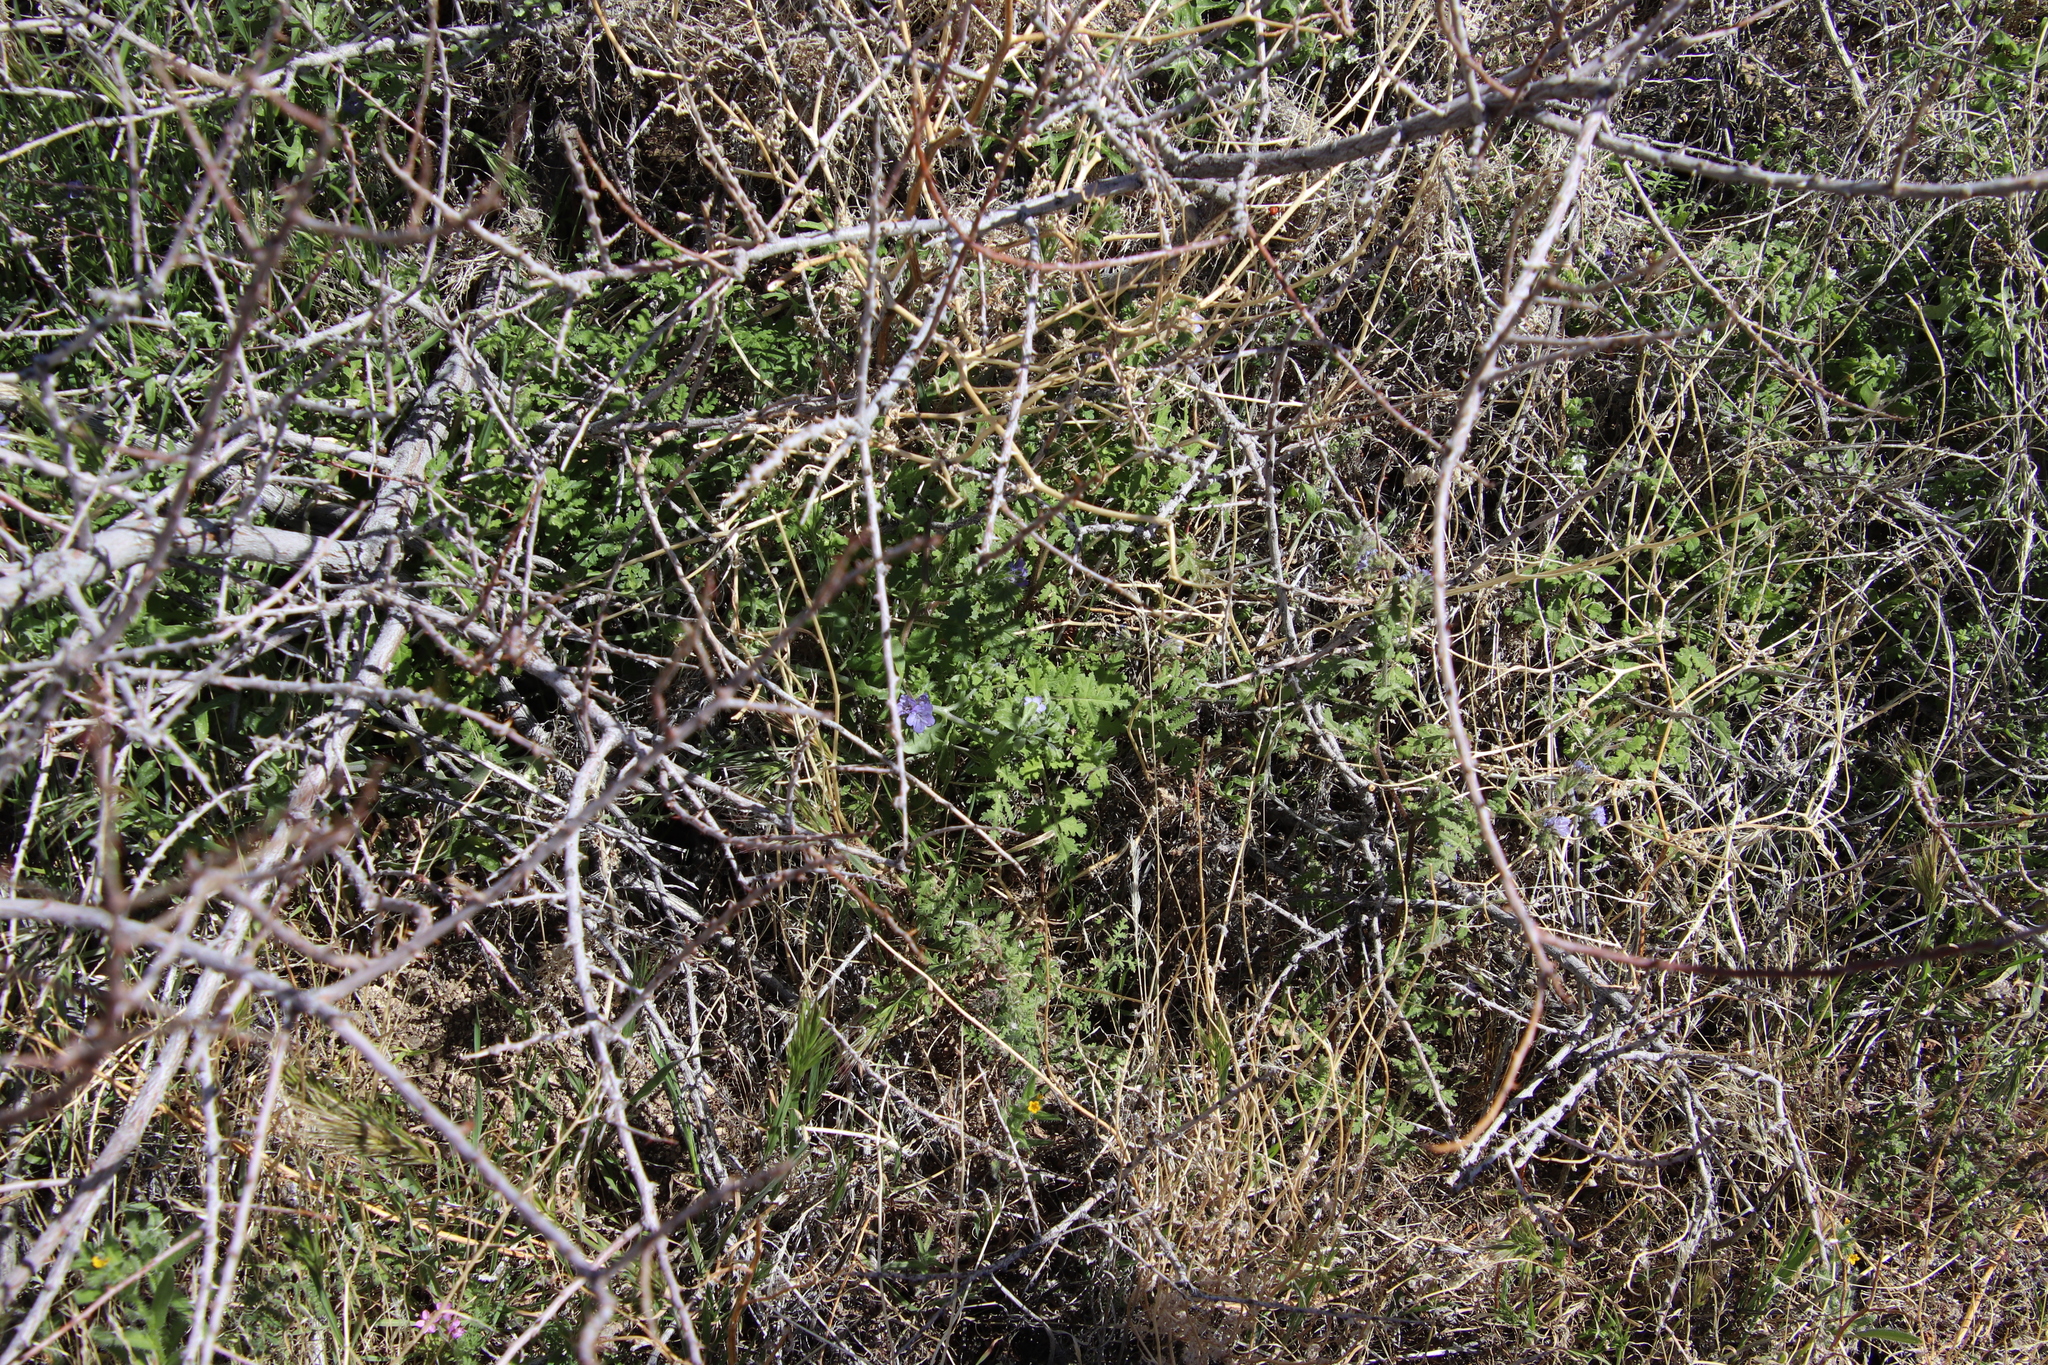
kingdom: Plantae
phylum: Tracheophyta
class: Magnoliopsida
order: Boraginales
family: Hydrophyllaceae
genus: Phacelia
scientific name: Phacelia distans
